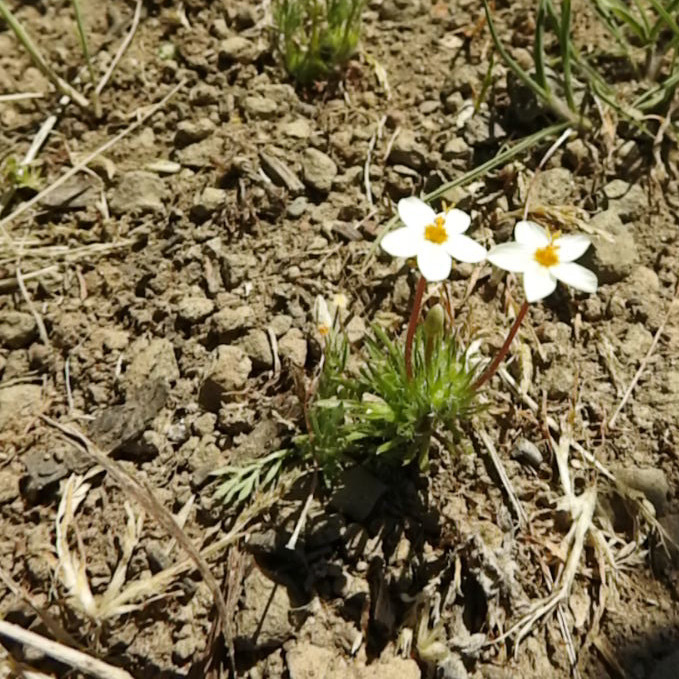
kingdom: Plantae
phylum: Tracheophyta
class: Magnoliopsida
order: Ericales
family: Polemoniaceae
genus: Leptosiphon
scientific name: Leptosiphon bicolor
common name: True babystars
